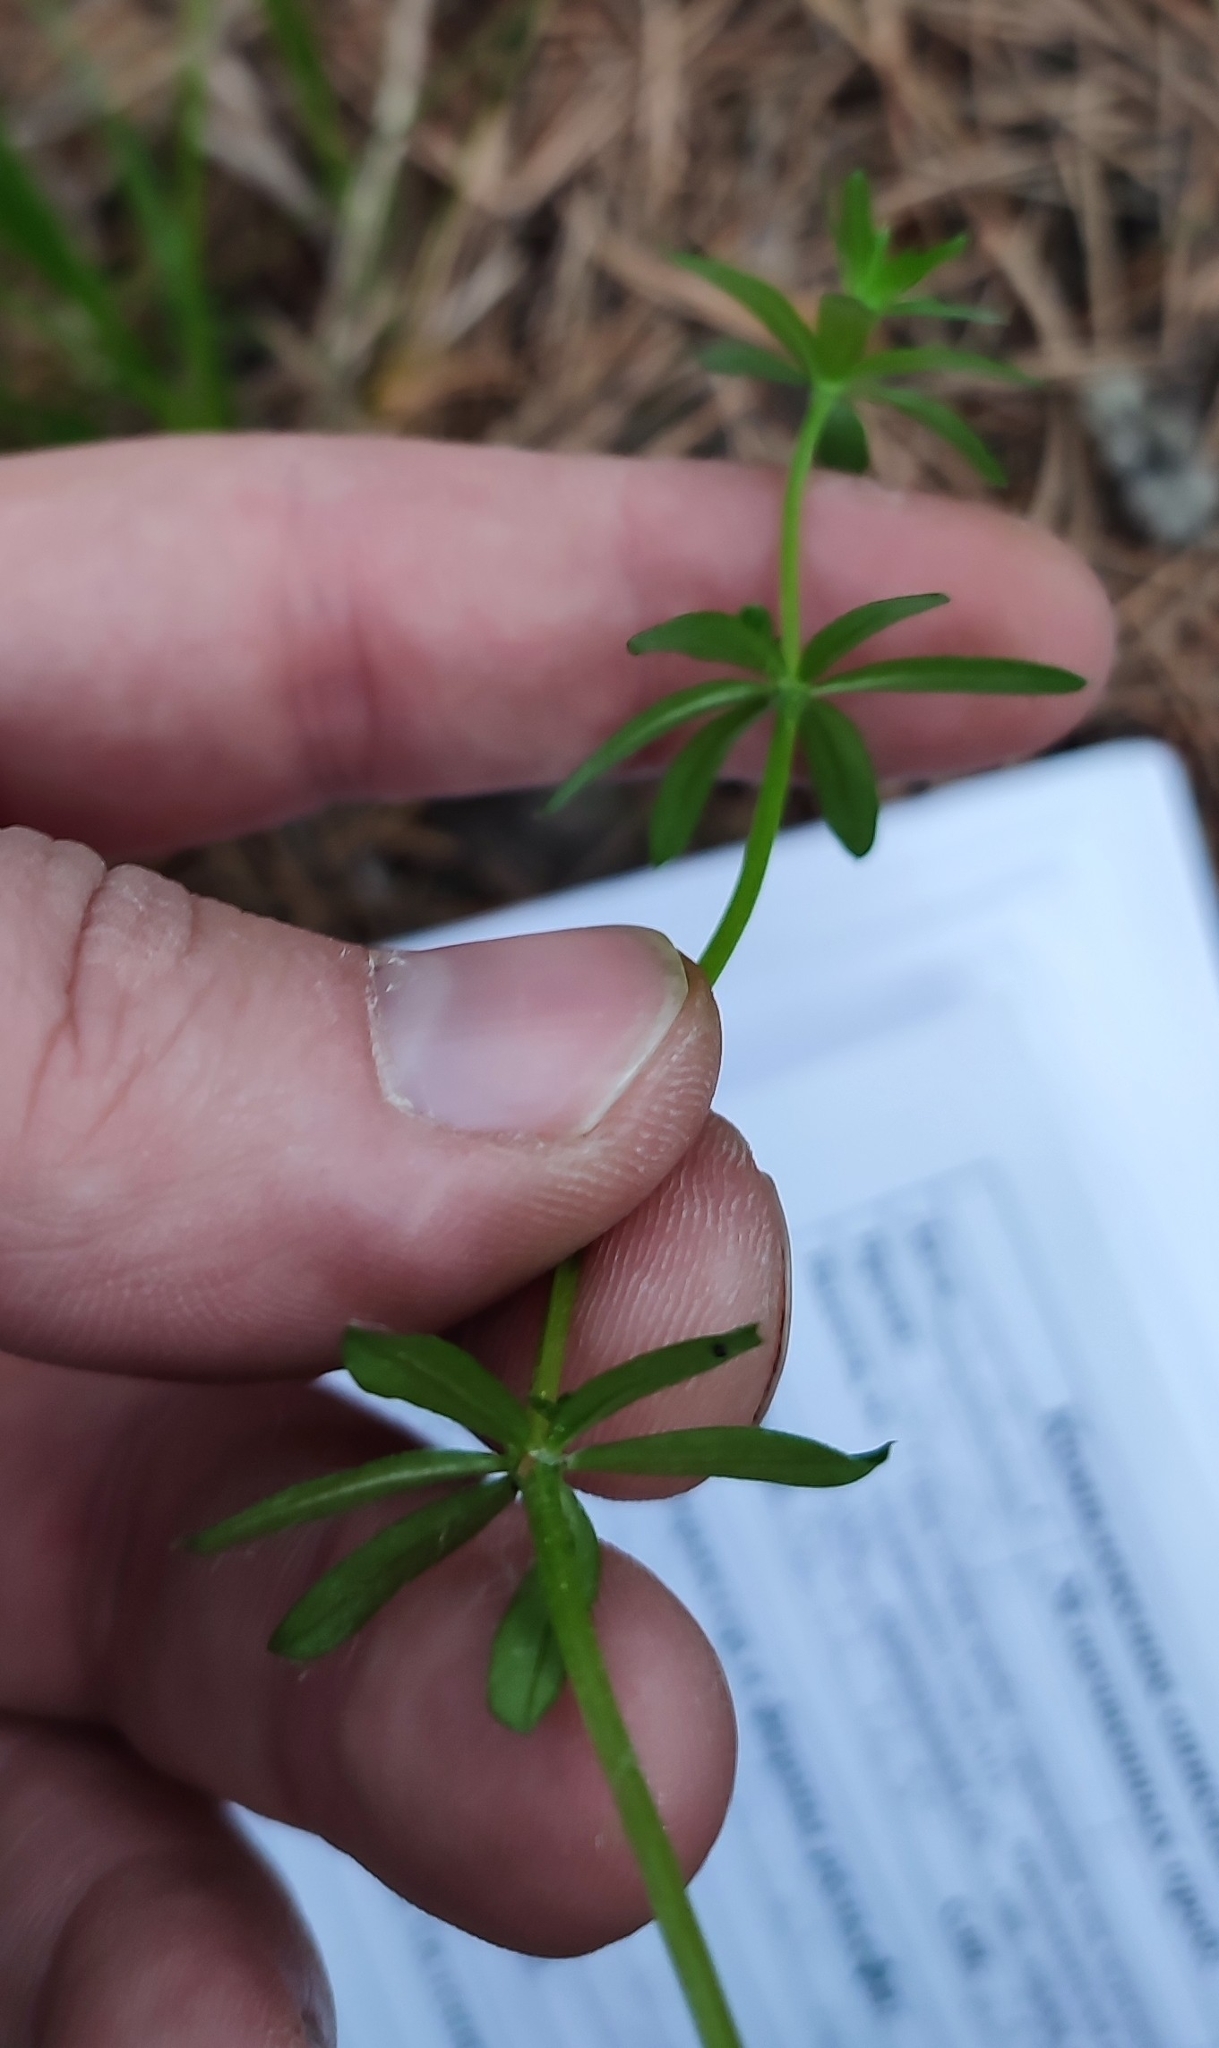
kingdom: Plantae
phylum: Tracheophyta
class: Magnoliopsida
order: Gentianales
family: Rubiaceae
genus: Galium
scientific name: Galium mollugo
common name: Hedge bedstraw
